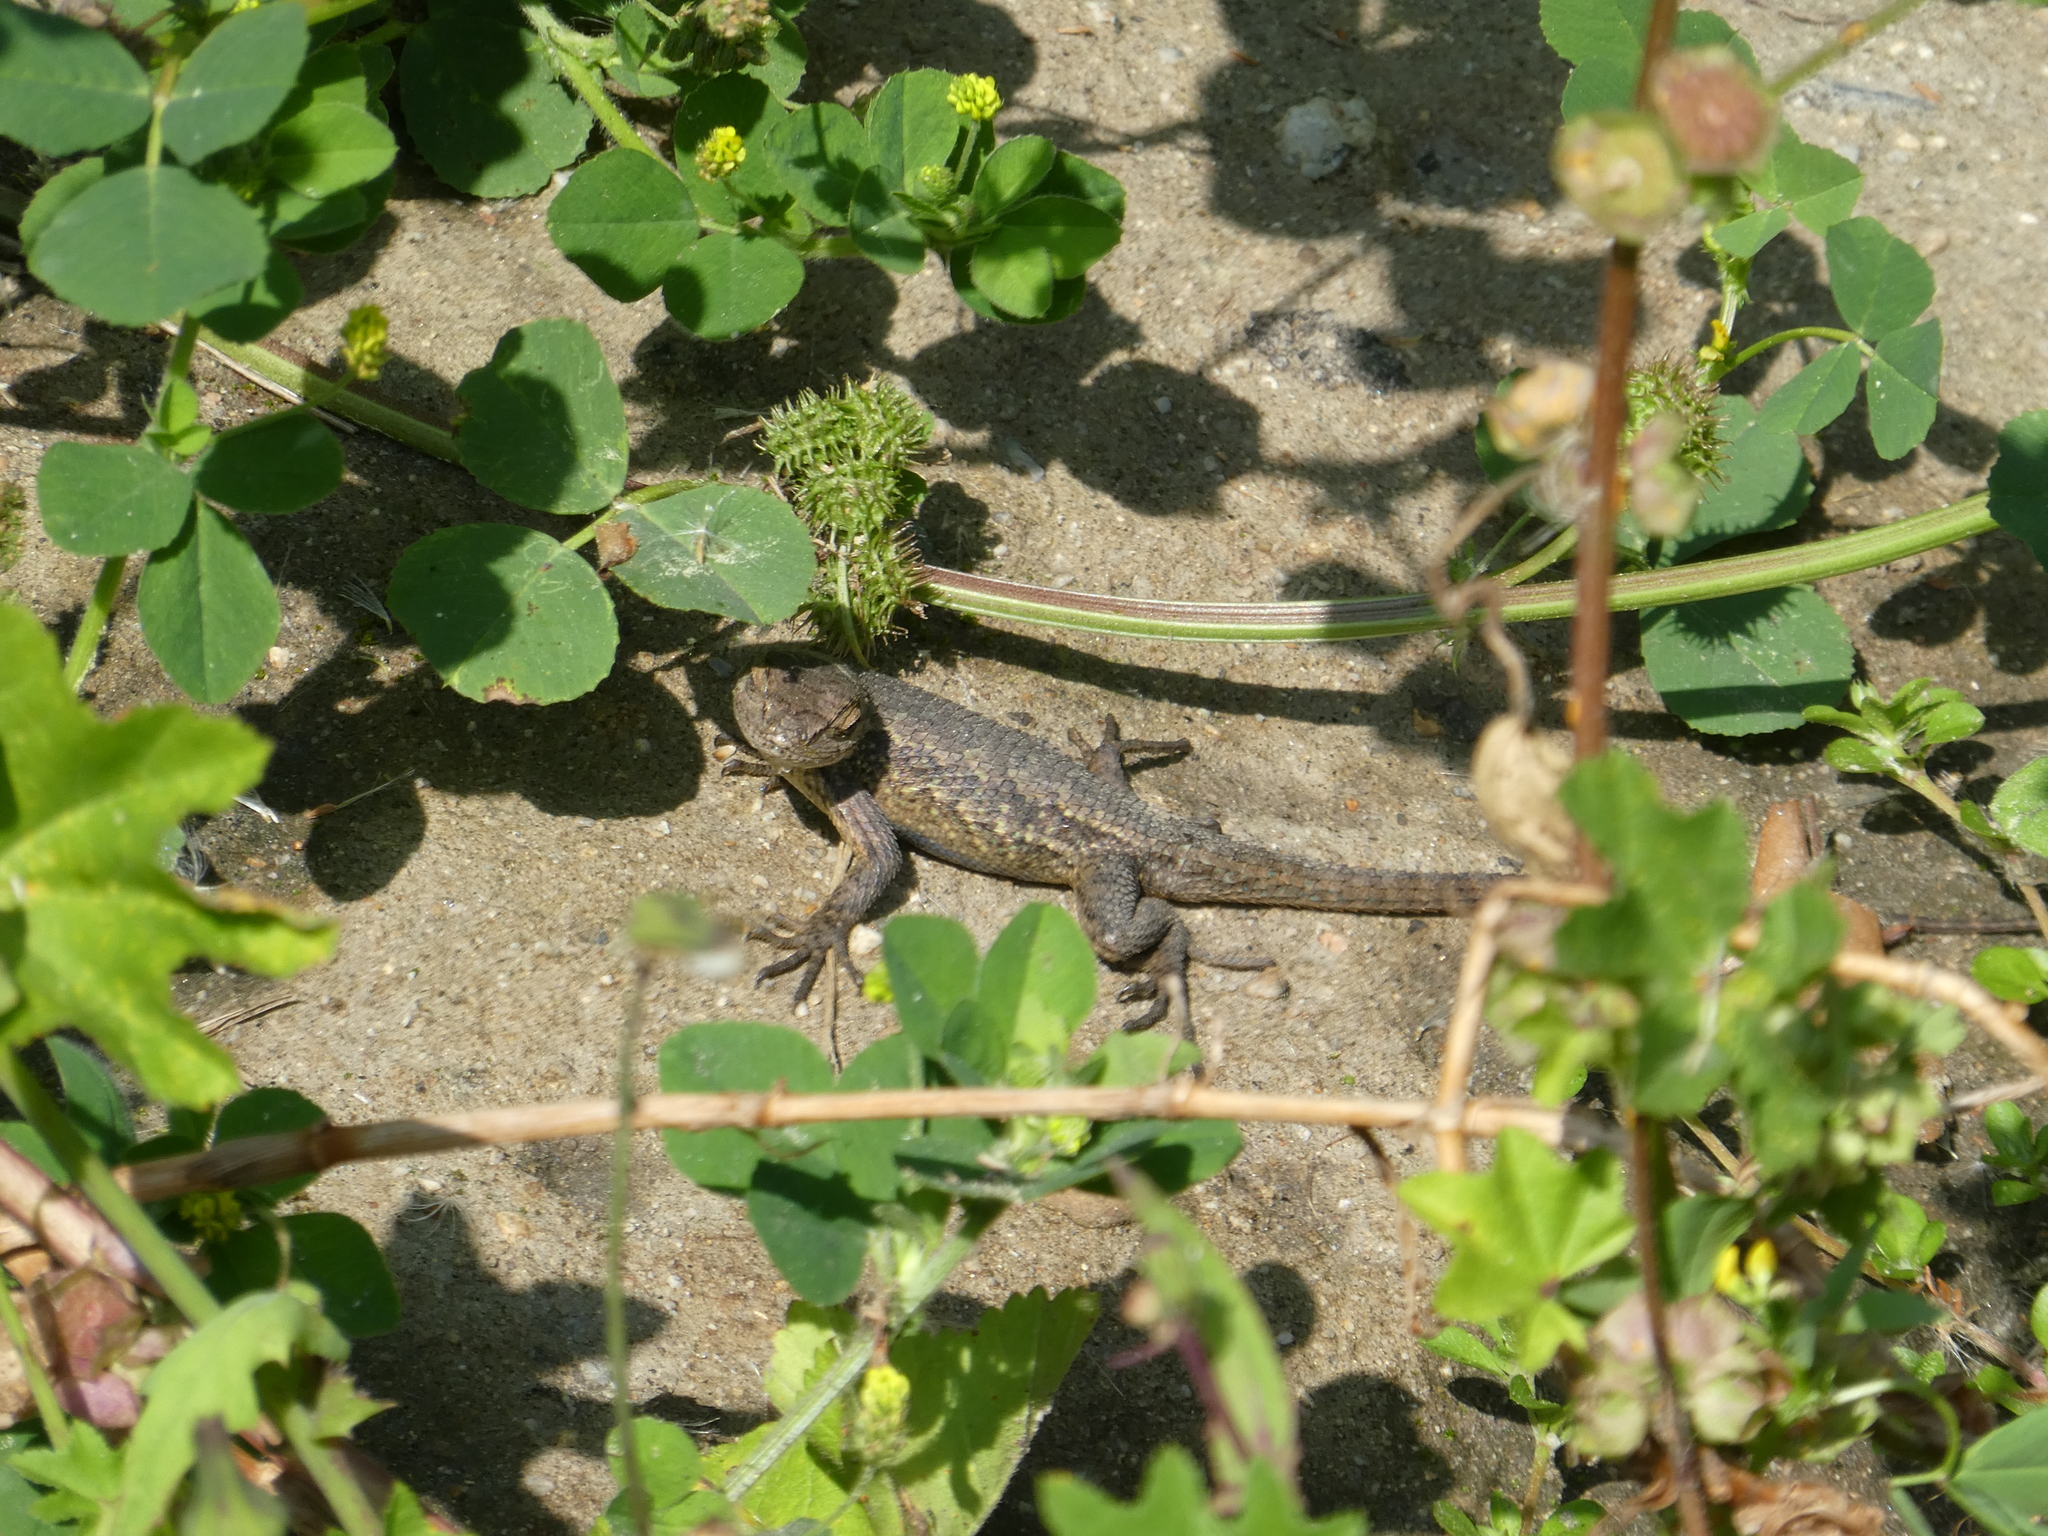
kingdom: Animalia
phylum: Chordata
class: Squamata
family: Phrynosomatidae
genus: Sceloporus
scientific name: Sceloporus occidentalis
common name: Western fence lizard
